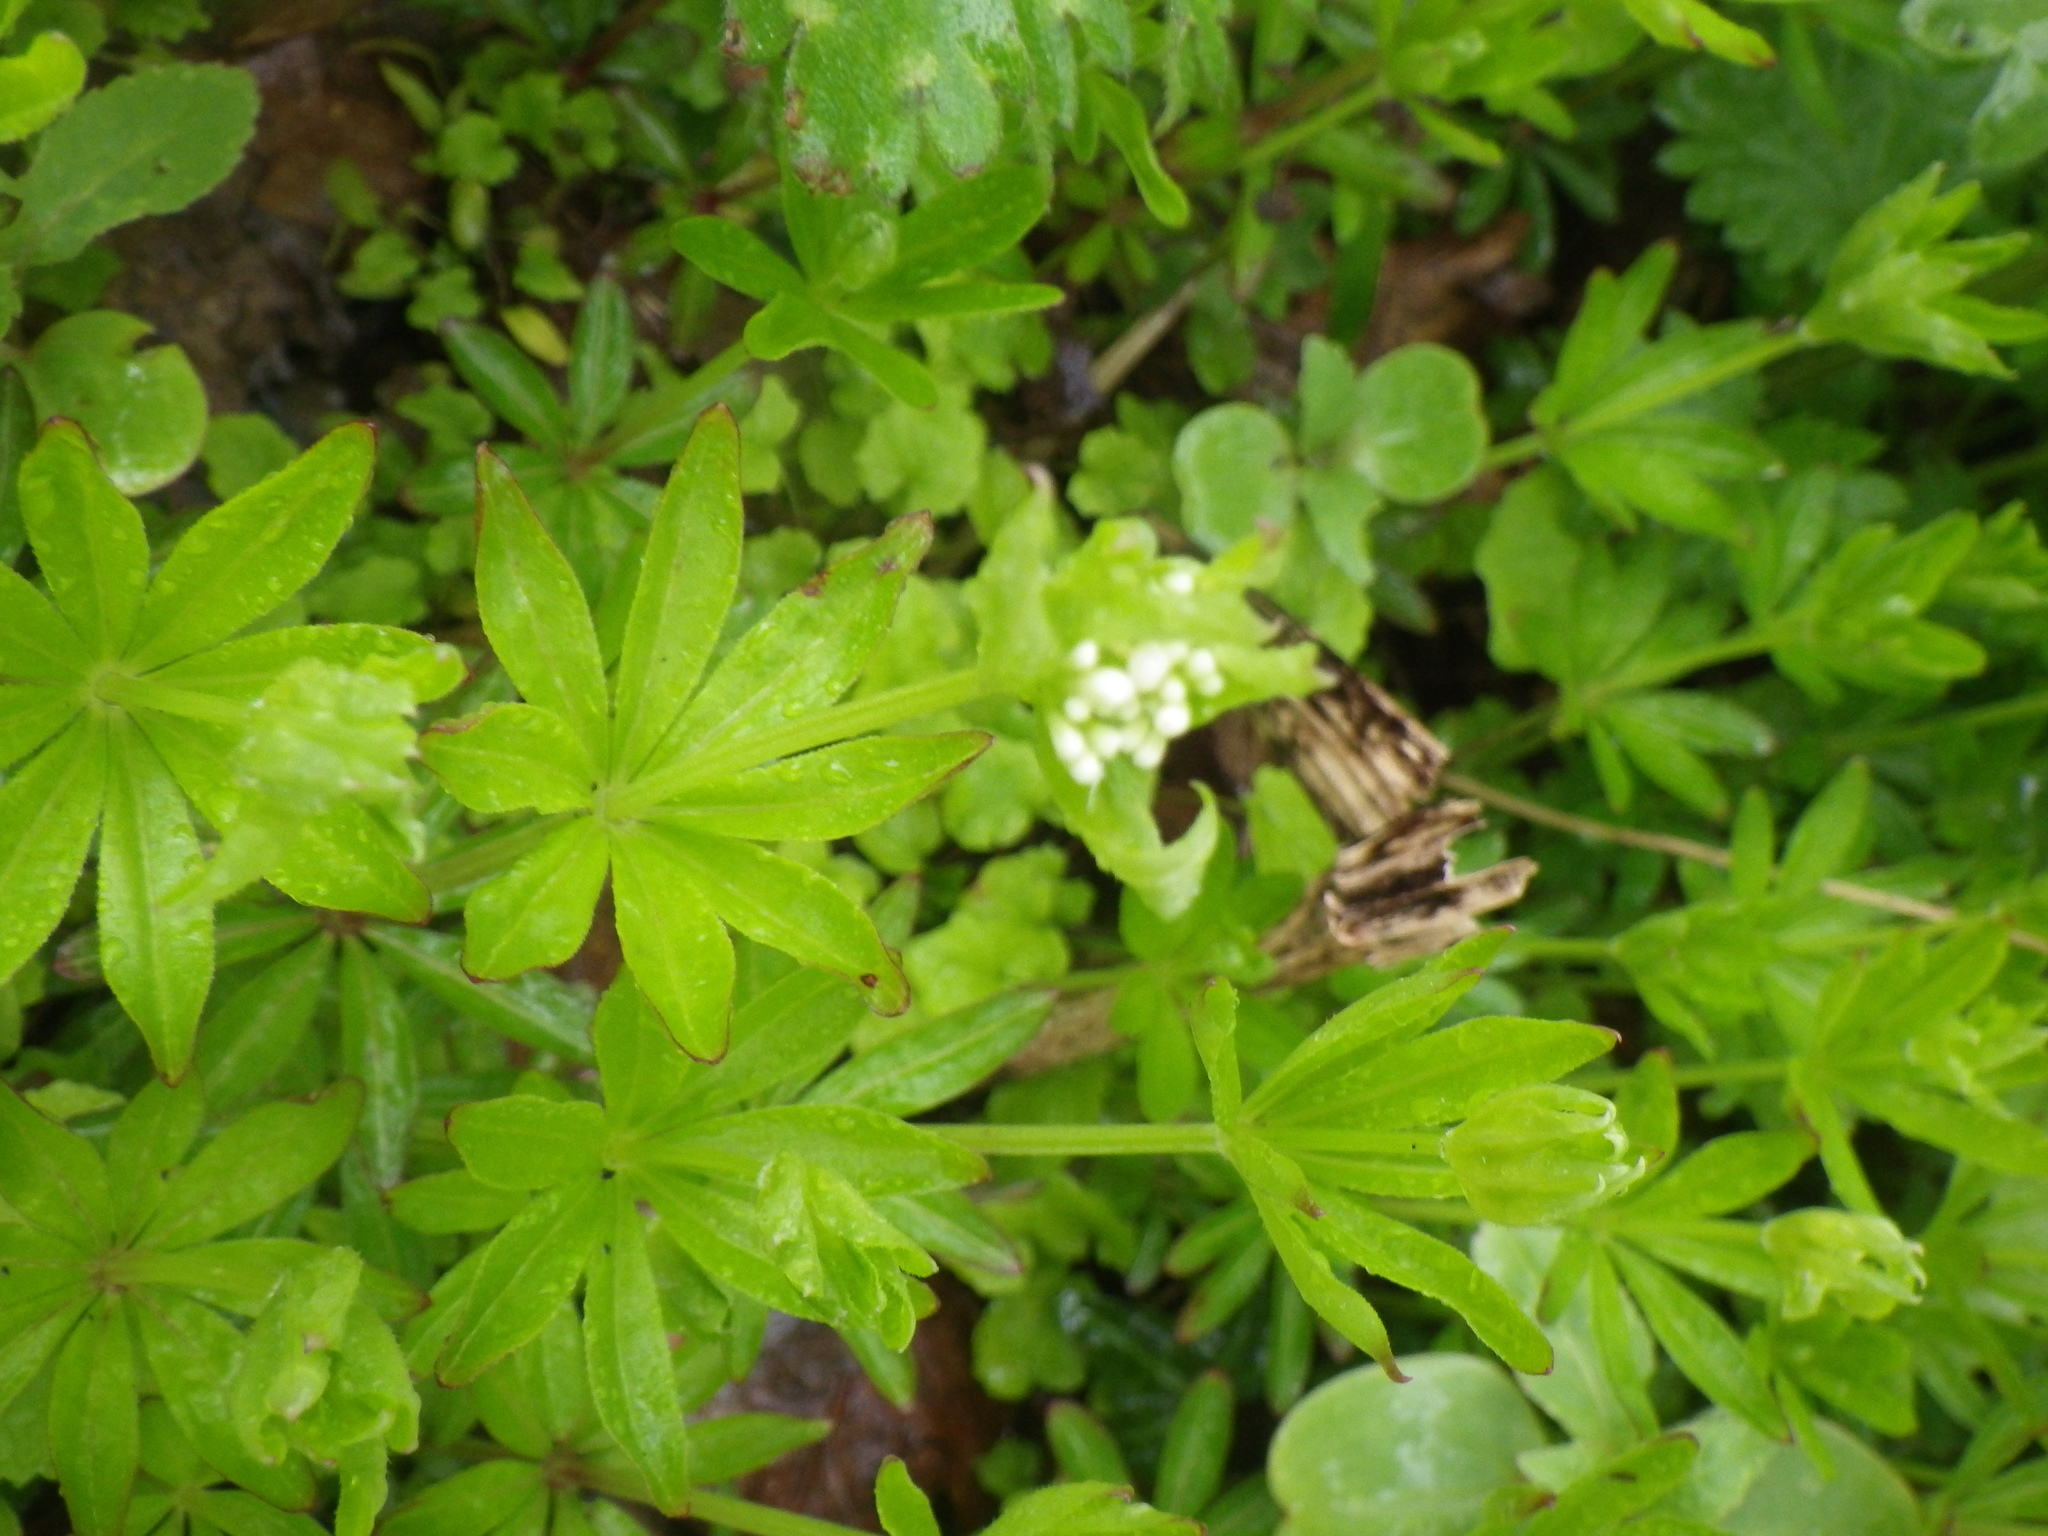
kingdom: Plantae
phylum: Tracheophyta
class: Magnoliopsida
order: Gentianales
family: Rubiaceae
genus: Galium
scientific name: Galium odoratum
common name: Sweet woodruff
